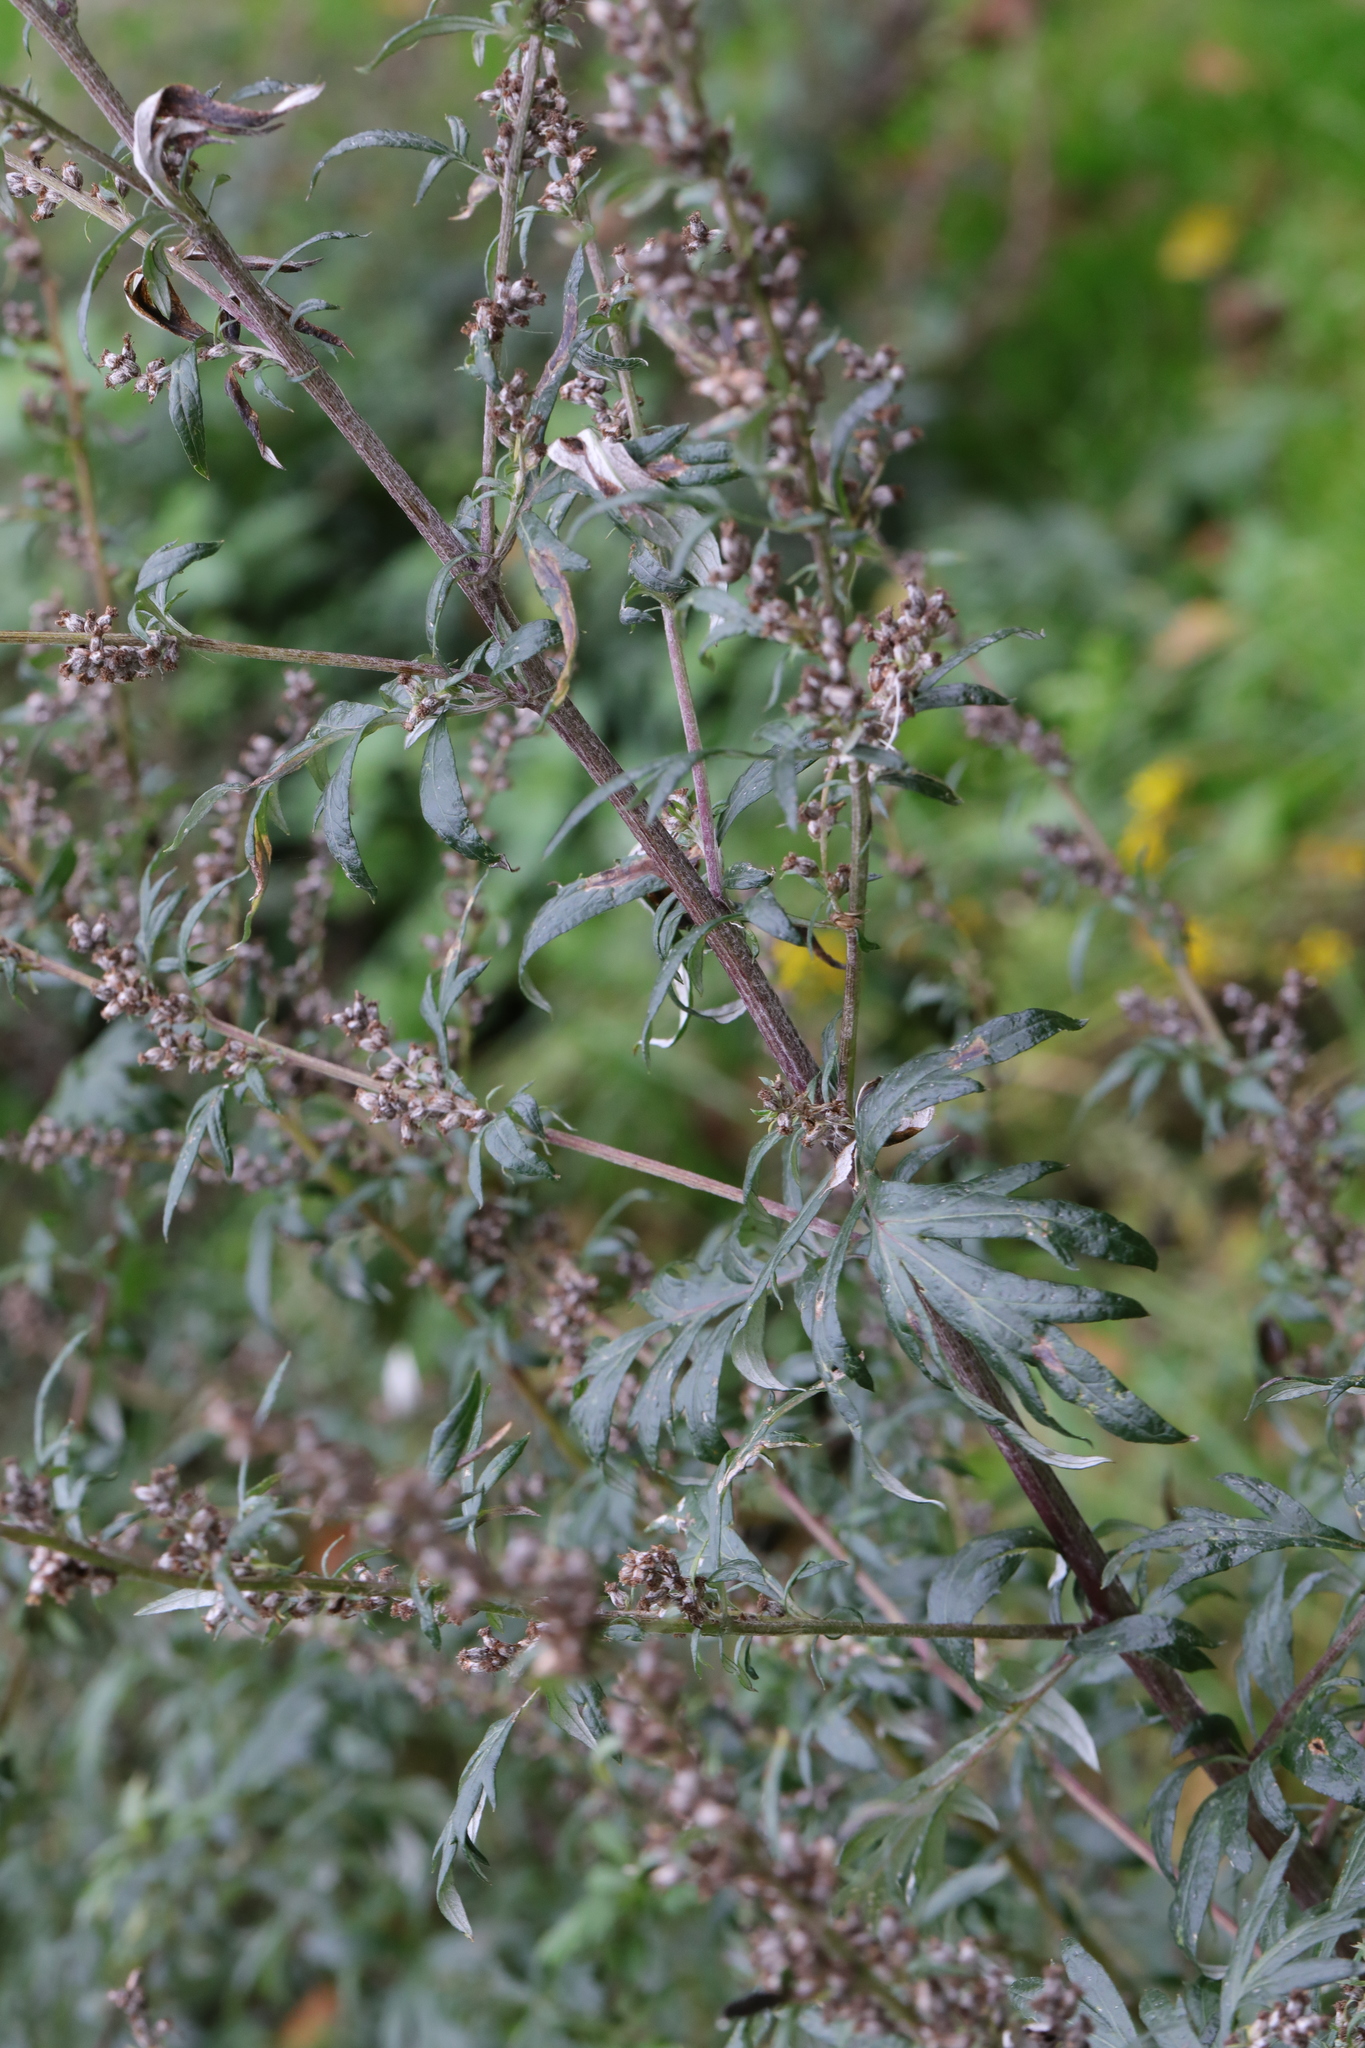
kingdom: Plantae
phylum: Tracheophyta
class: Magnoliopsida
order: Asterales
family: Asteraceae
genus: Artemisia
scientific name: Artemisia vulgaris
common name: Mugwort
